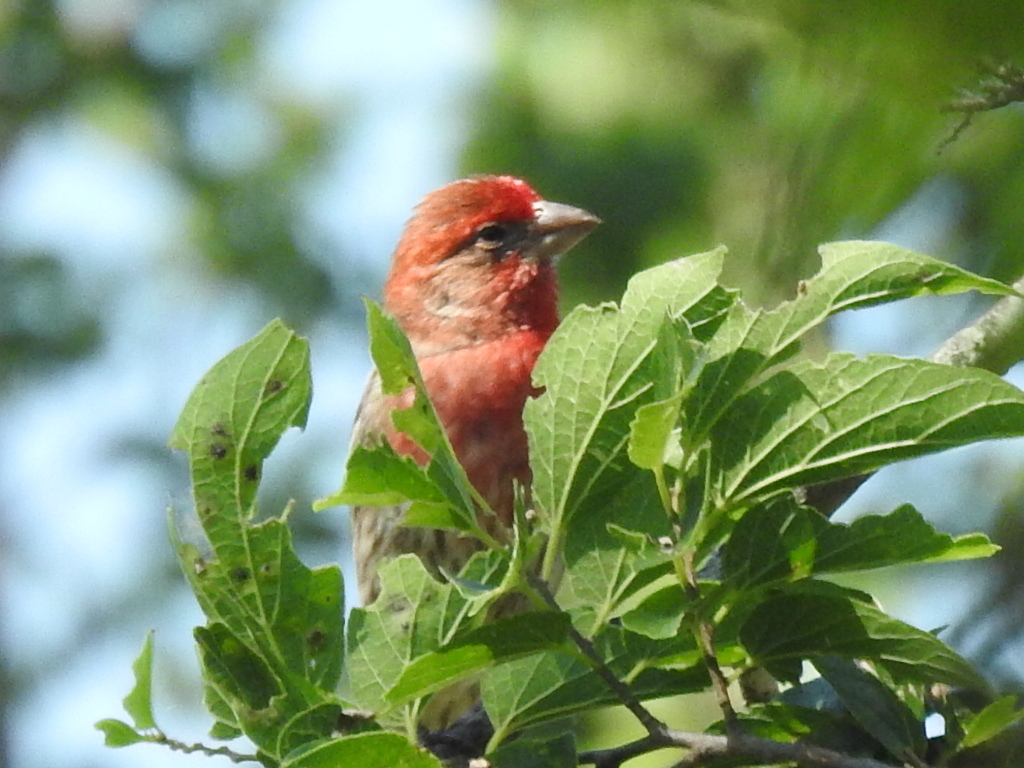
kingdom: Animalia
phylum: Chordata
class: Aves
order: Passeriformes
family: Fringillidae
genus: Haemorhous
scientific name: Haemorhous mexicanus
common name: House finch
